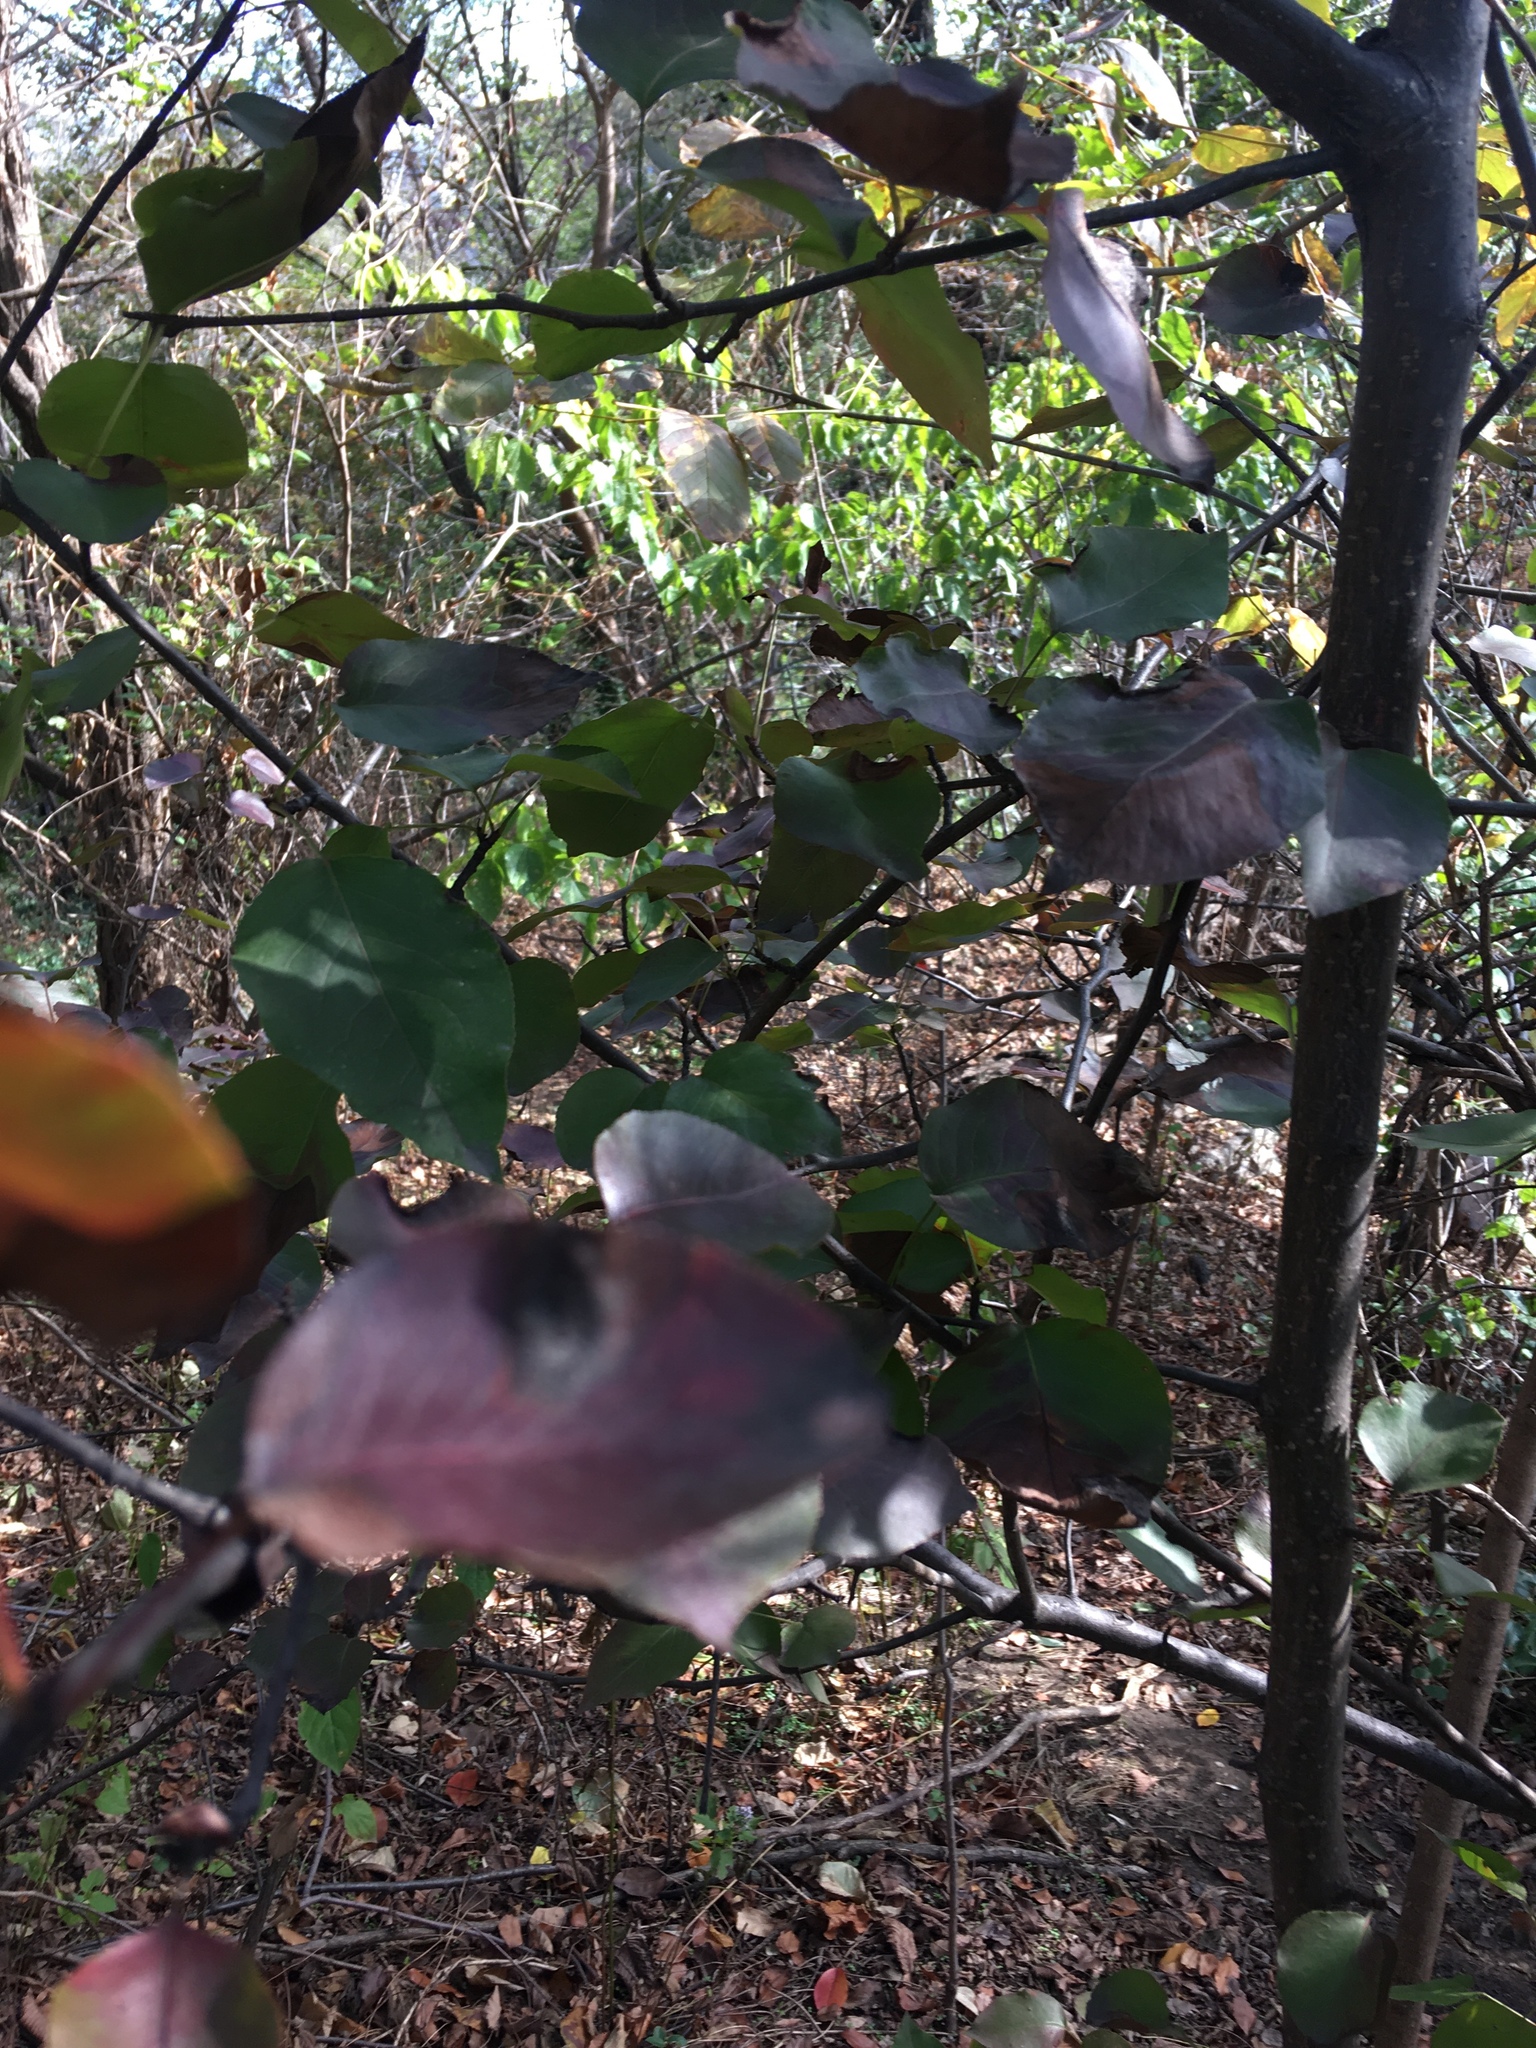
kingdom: Plantae
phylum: Tracheophyta
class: Magnoliopsida
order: Rosales
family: Rosaceae
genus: Pyrus
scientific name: Pyrus calleryana
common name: Callery pear
